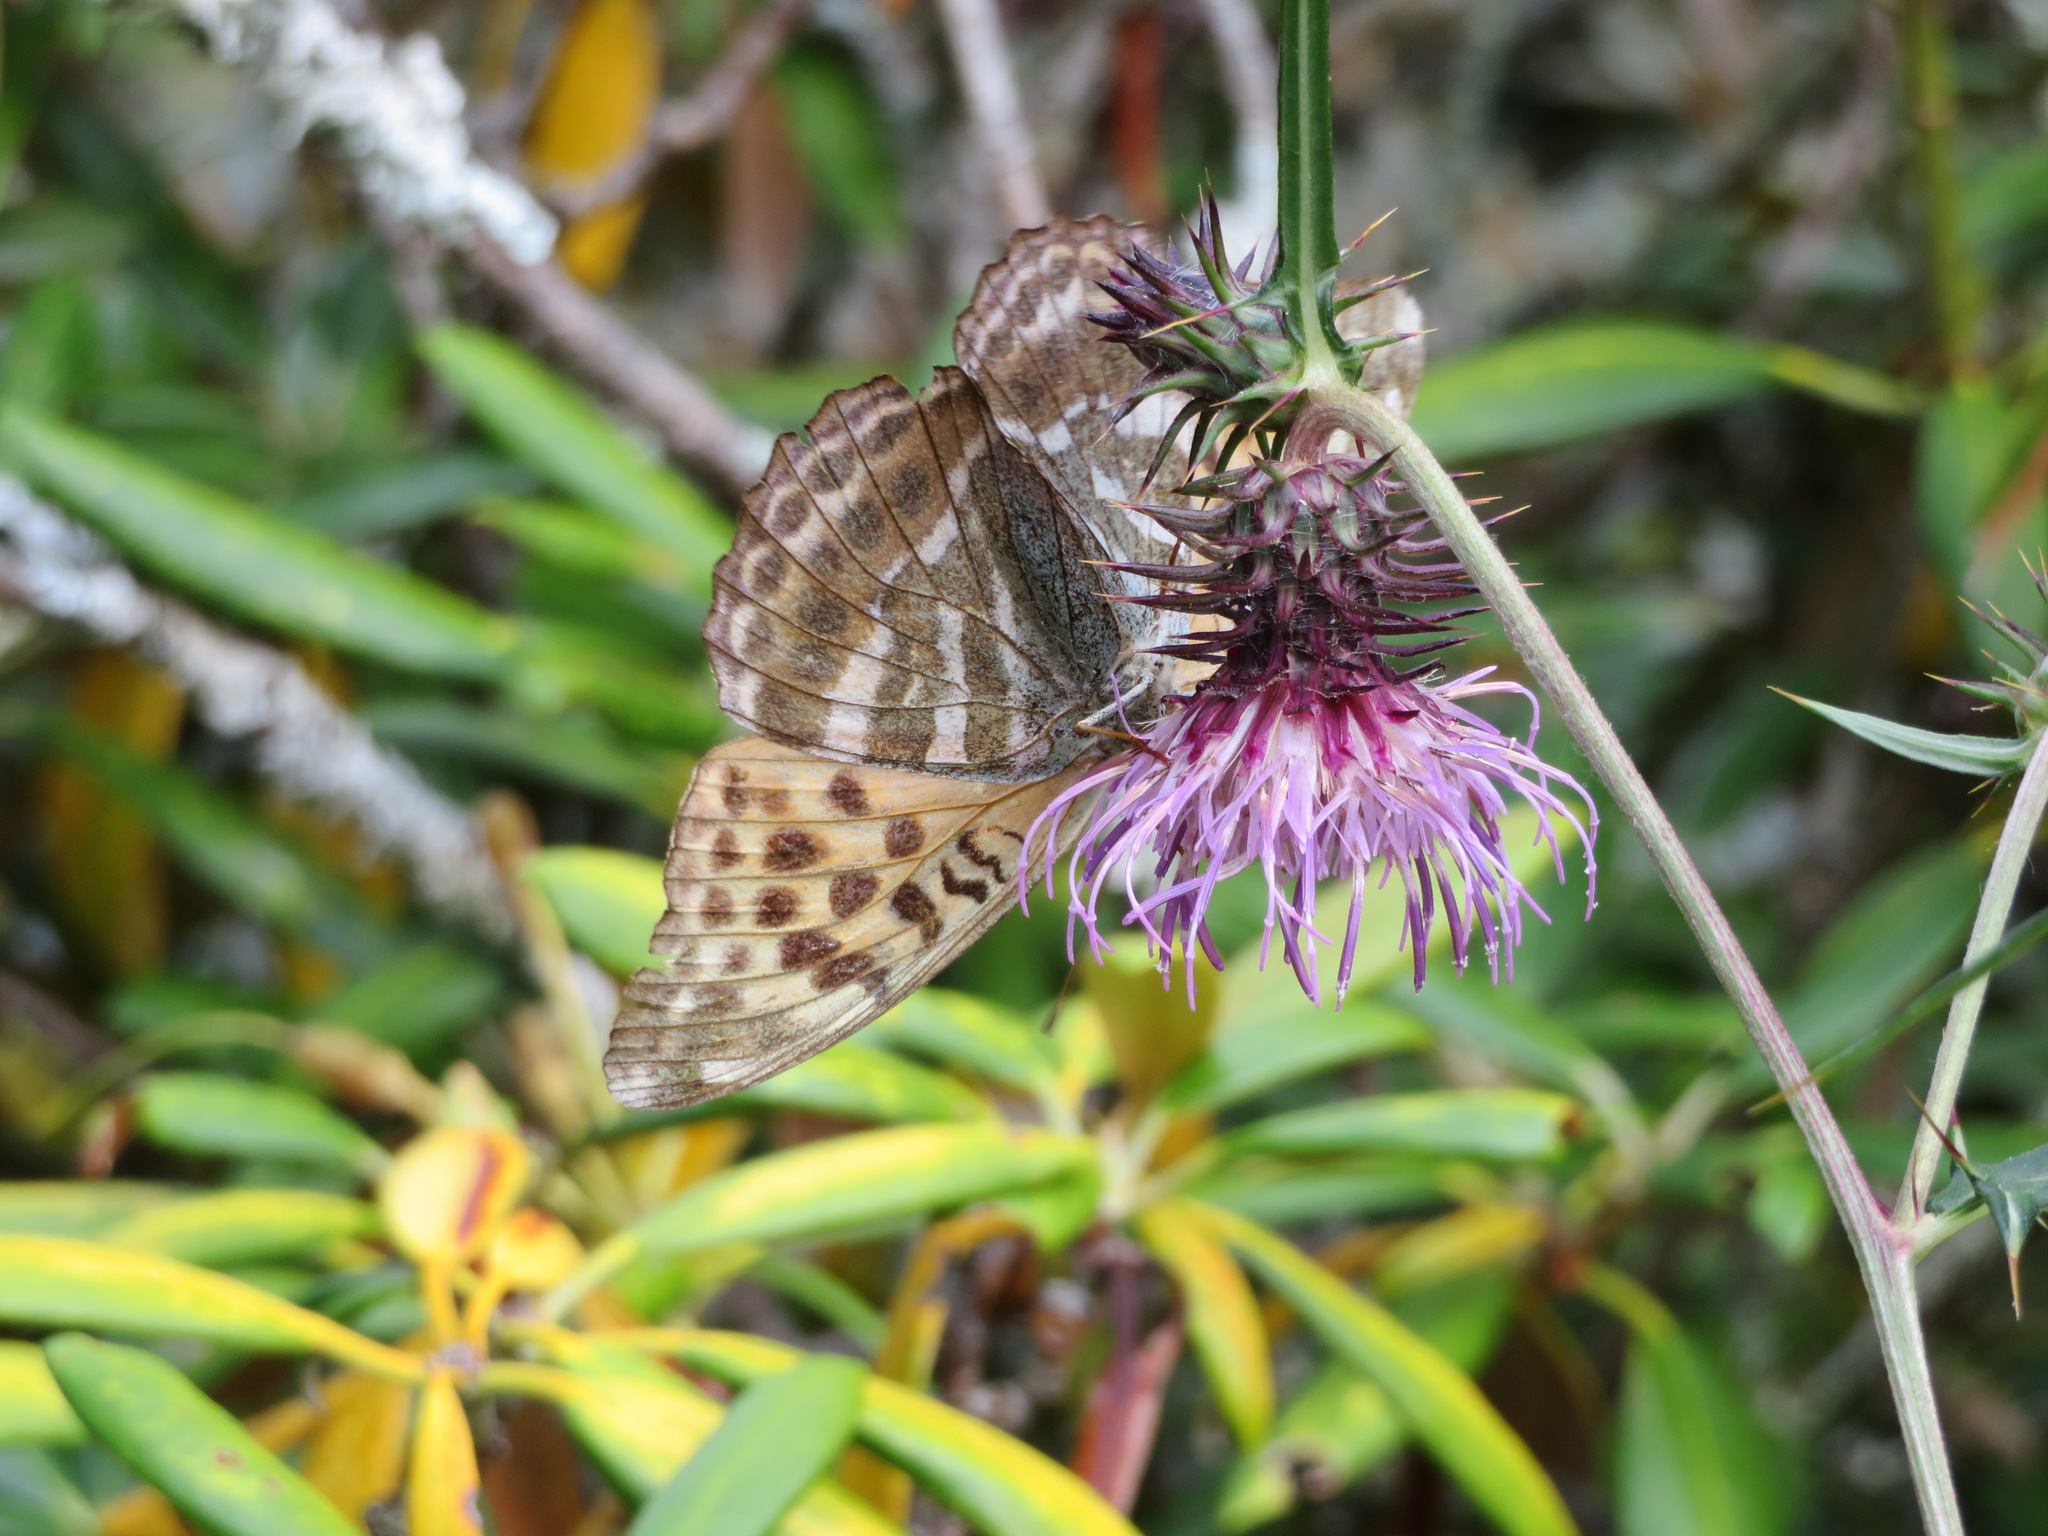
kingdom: Animalia
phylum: Arthropoda
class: Insecta
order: Lepidoptera
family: Nymphalidae
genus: Argynnis
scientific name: Argynnis paphia
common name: Silver-washed fritillary
